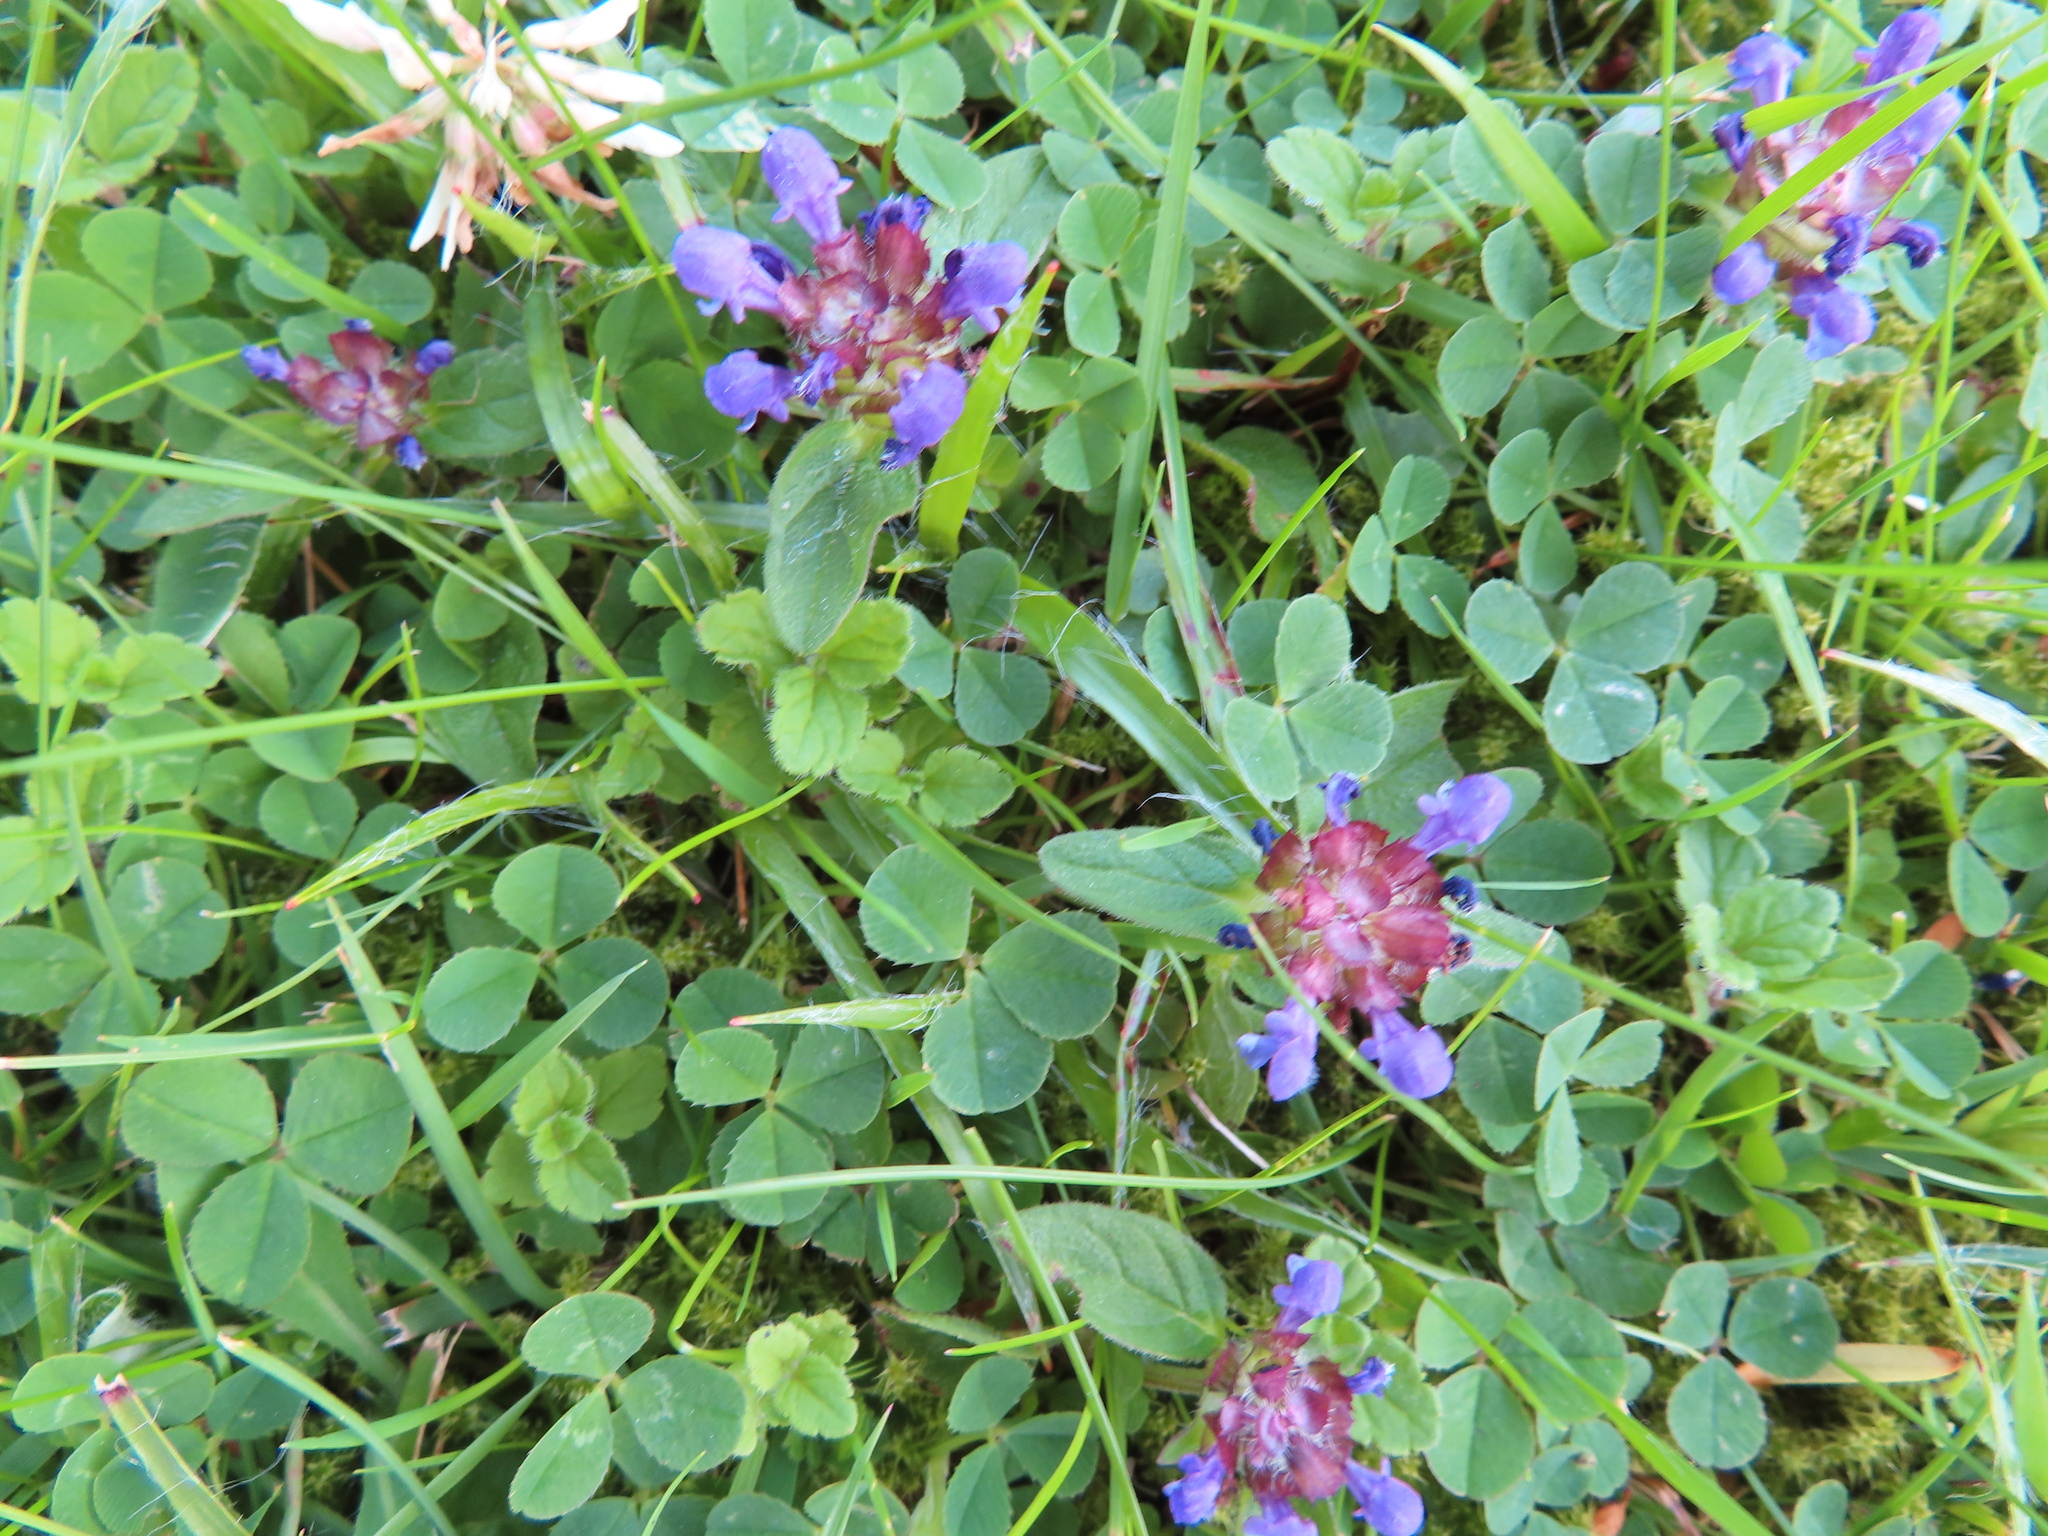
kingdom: Plantae
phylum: Tracheophyta
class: Magnoliopsida
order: Lamiales
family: Lamiaceae
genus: Prunella
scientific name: Prunella vulgaris
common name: Heal-all
